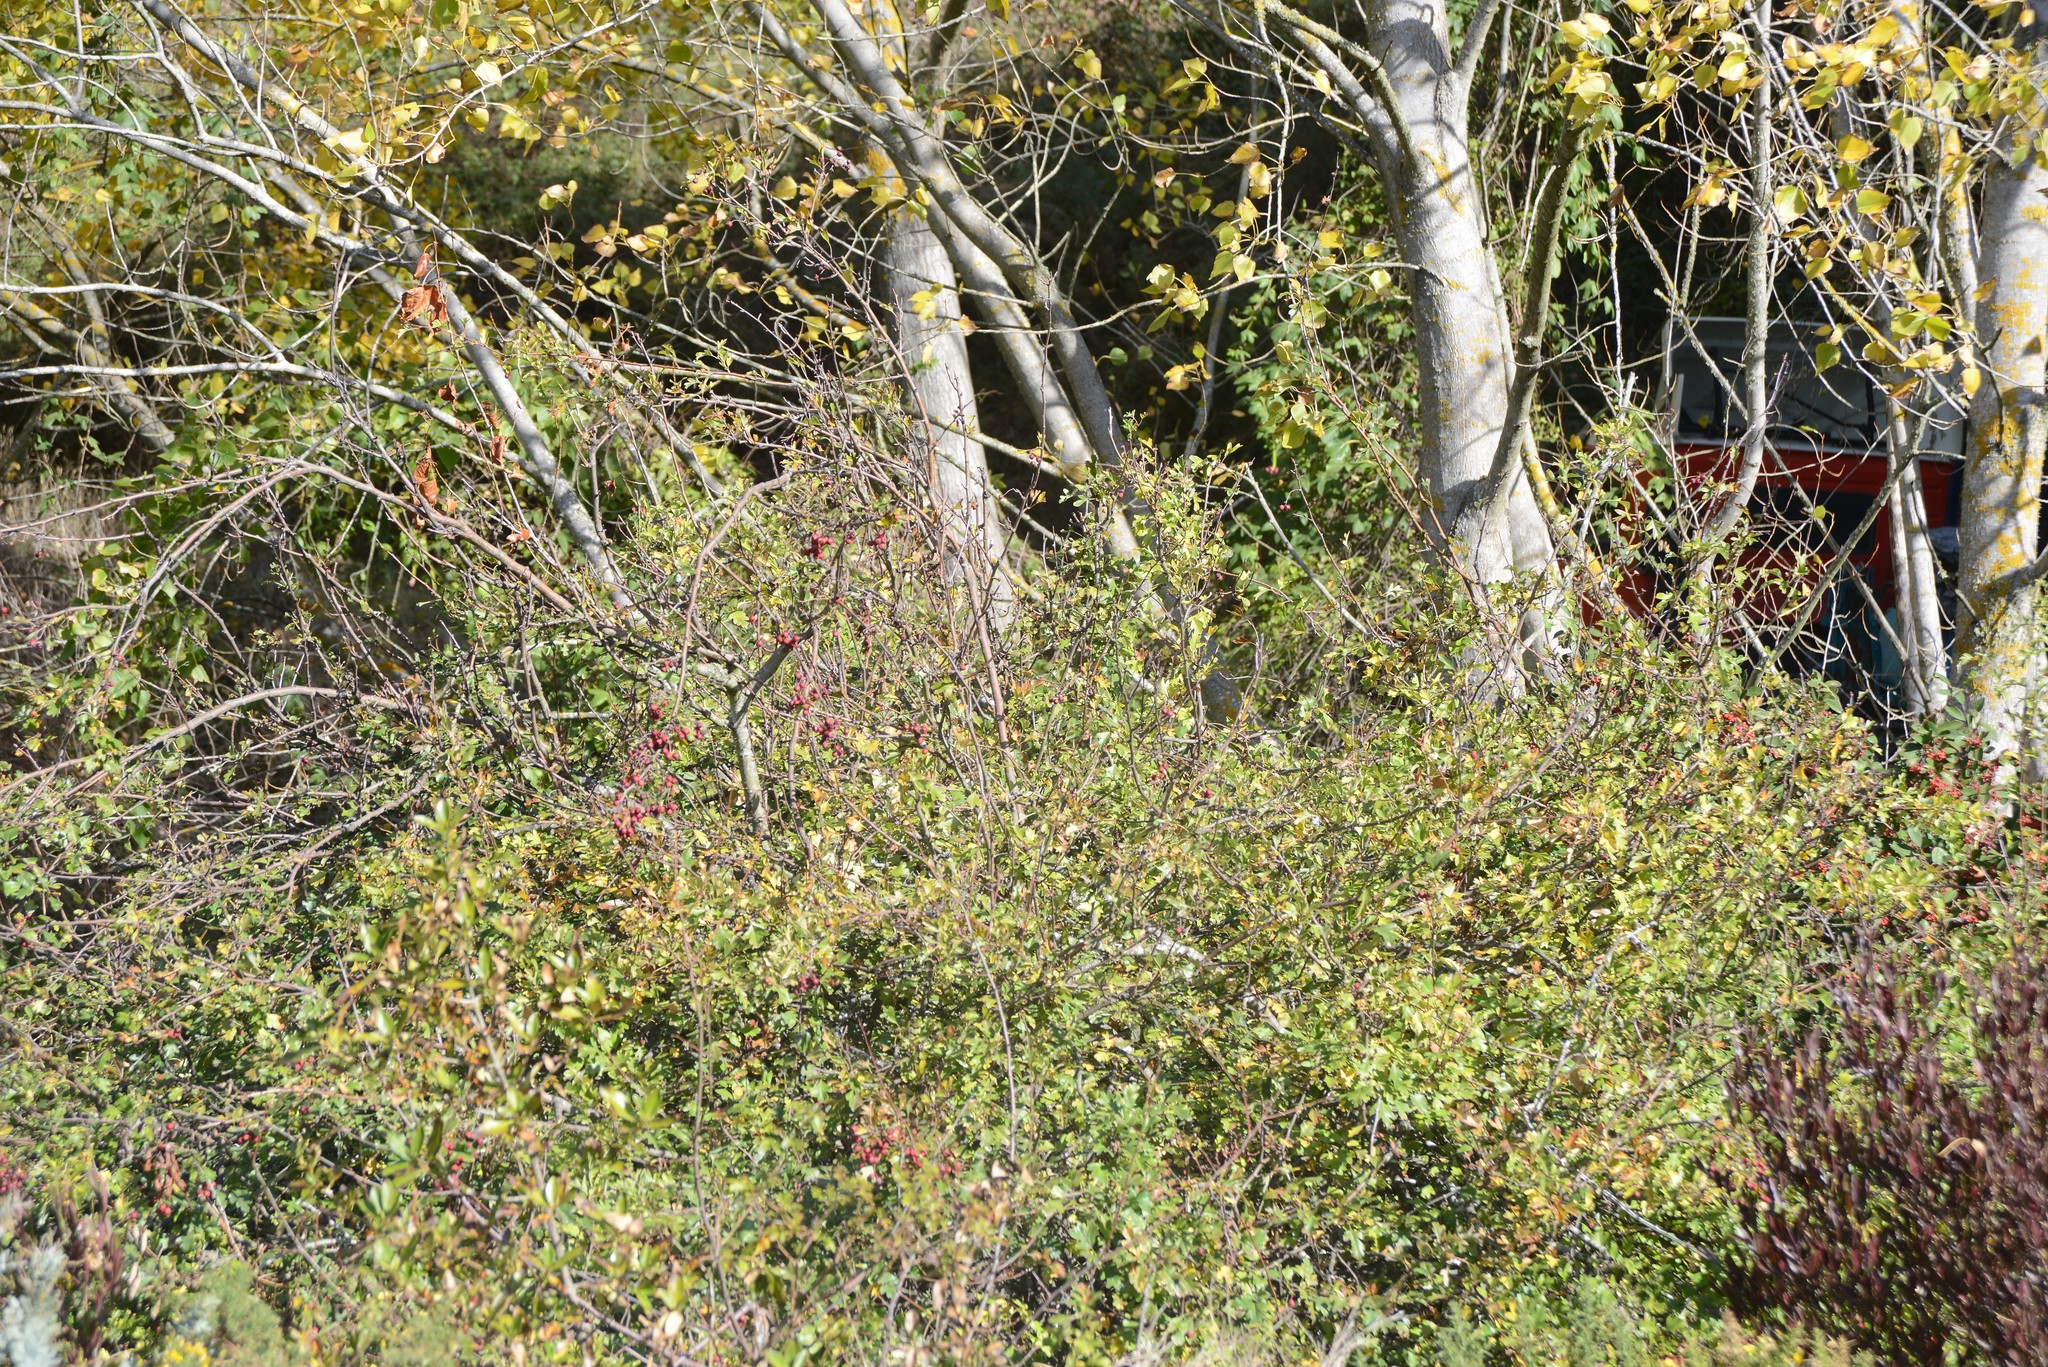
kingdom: Plantae
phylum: Tracheophyta
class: Magnoliopsida
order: Rosales
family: Rosaceae
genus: Crataegus
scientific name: Crataegus monogyna
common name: Hawthorn
